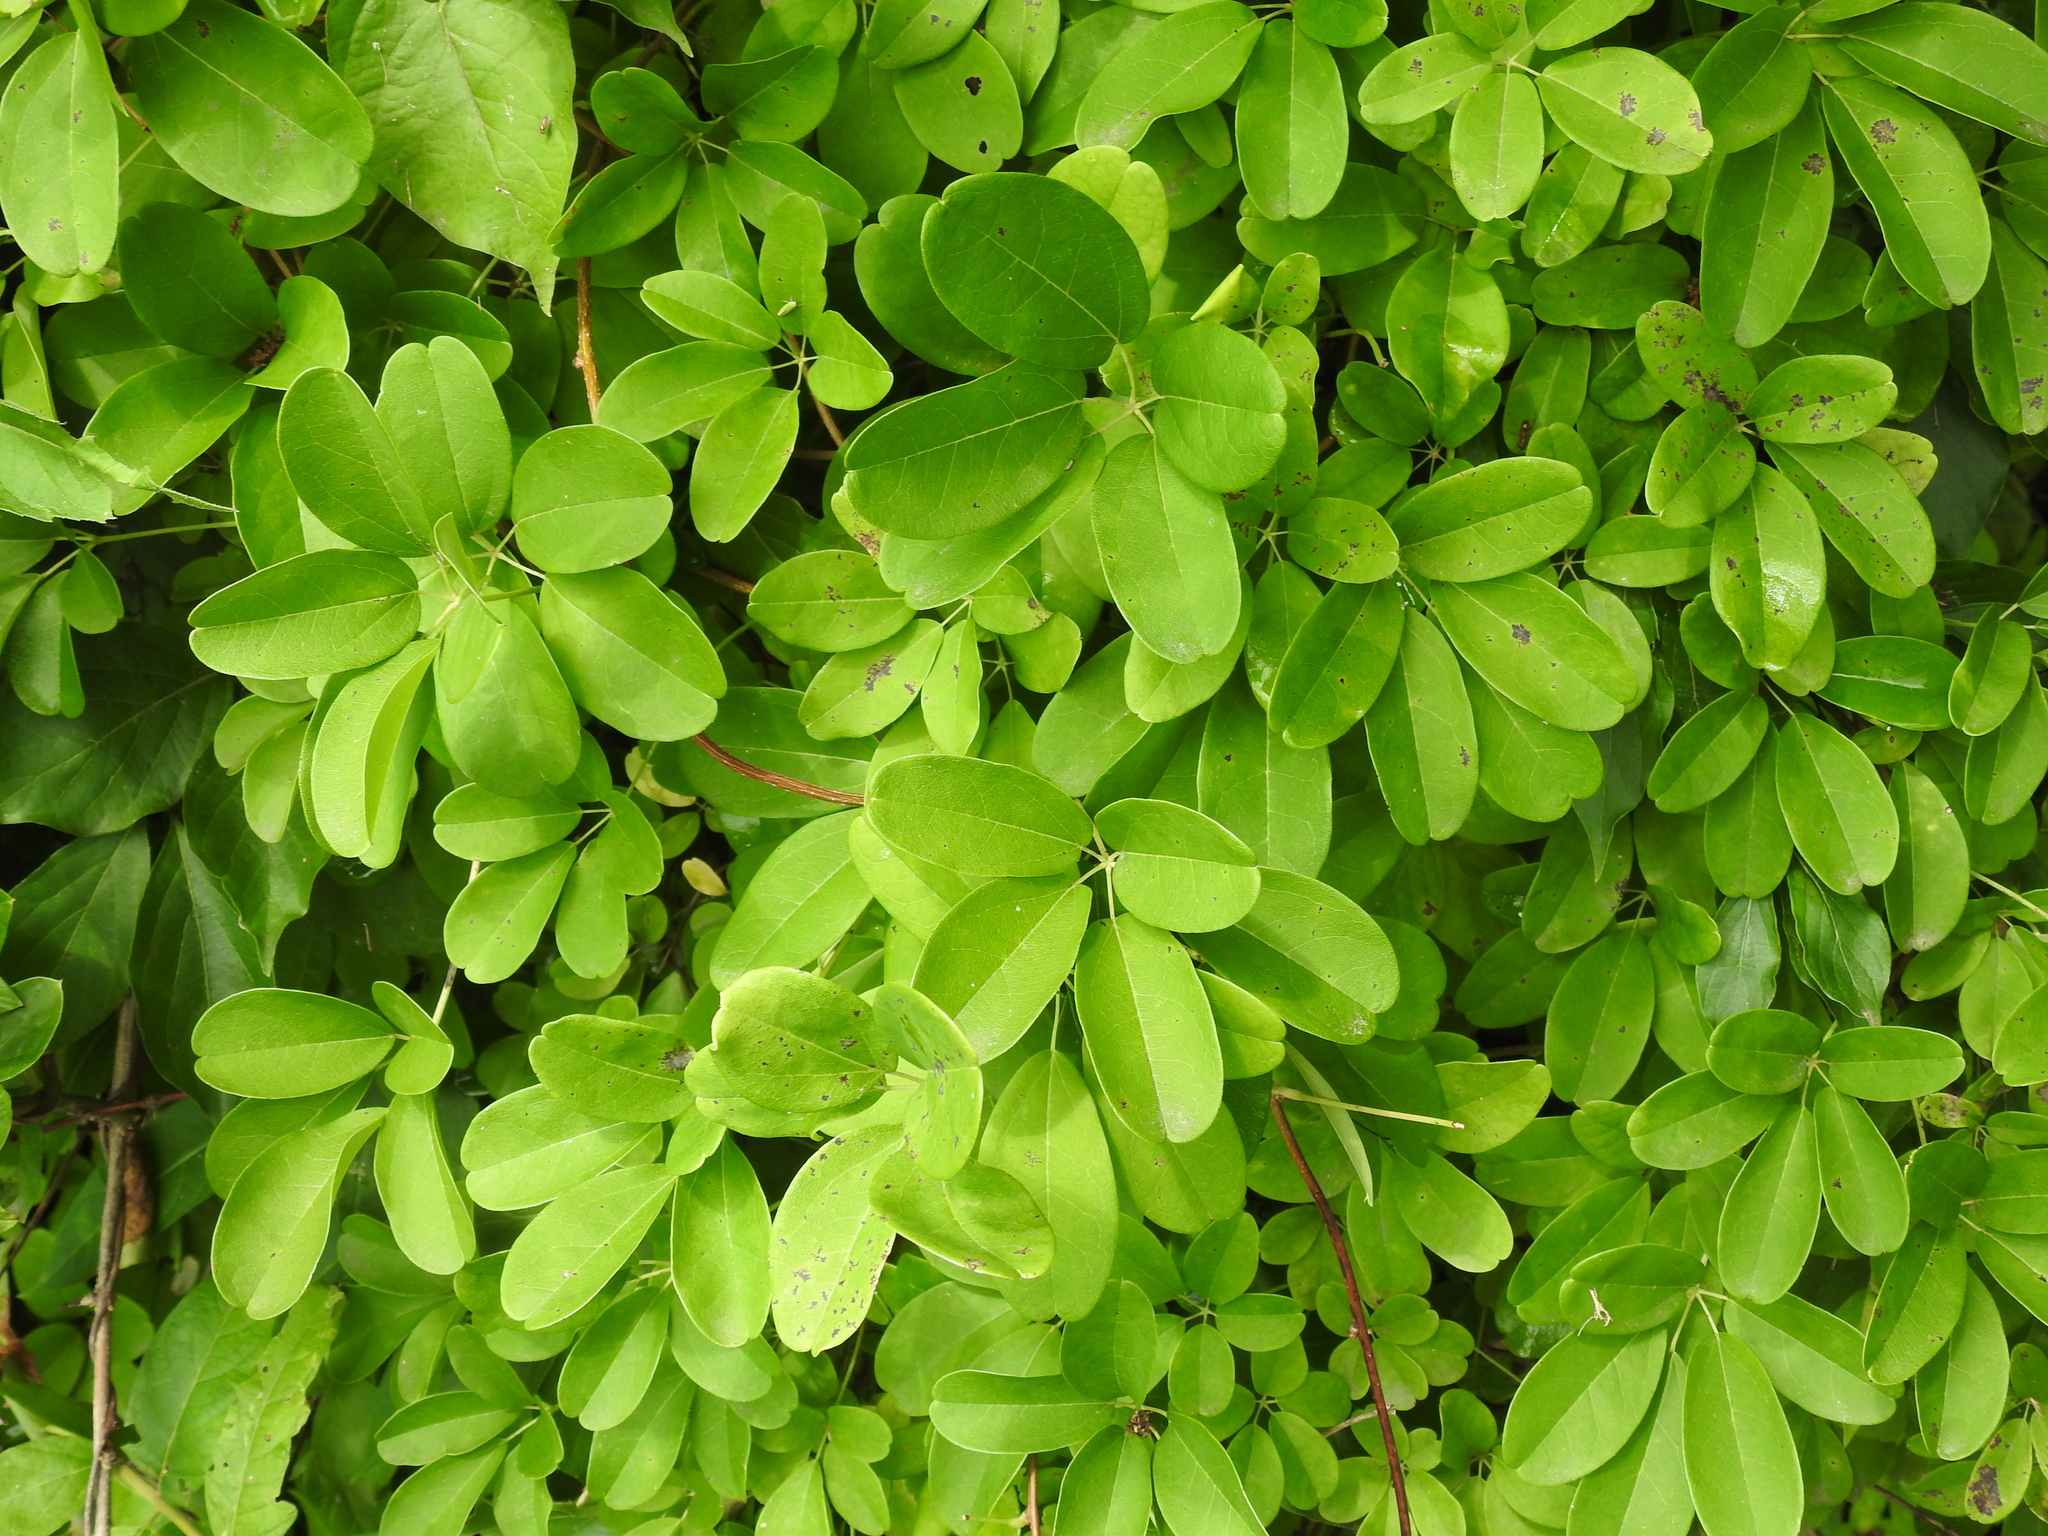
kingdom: Plantae
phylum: Tracheophyta
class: Magnoliopsida
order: Ranunculales
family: Lardizabalaceae
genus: Akebia
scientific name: Akebia quinata
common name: Five-leaf akebia
